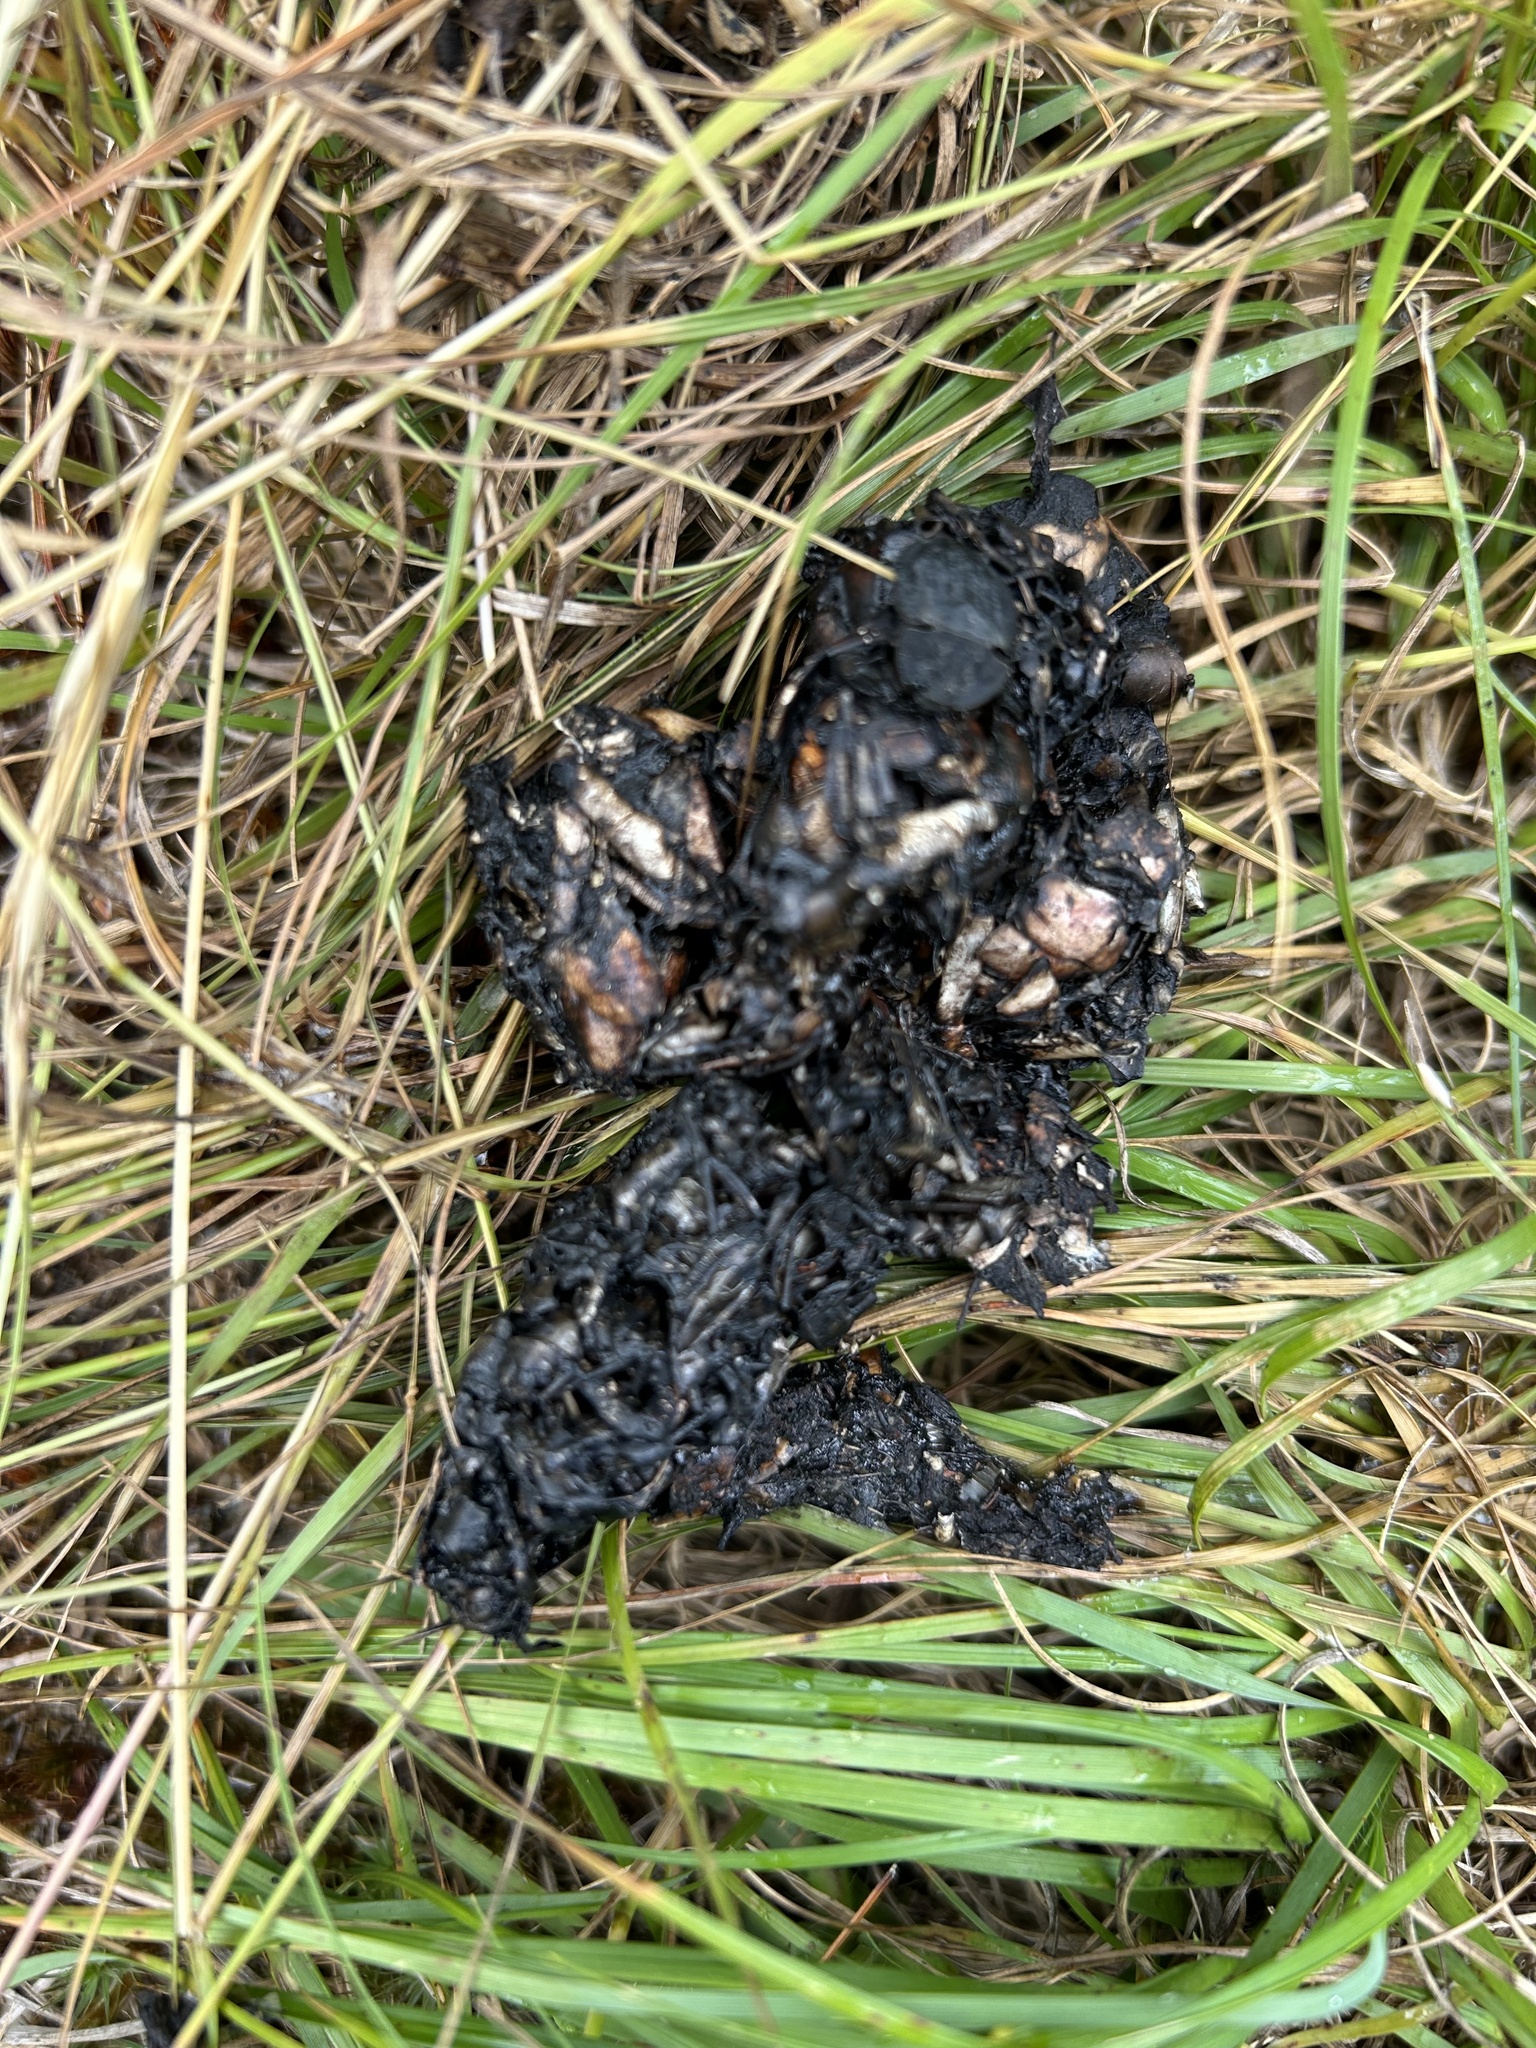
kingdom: Animalia
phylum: Chordata
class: Mammalia
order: Carnivora
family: Mustelidae
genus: Lontra
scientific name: Lontra canadensis
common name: North american river otter
